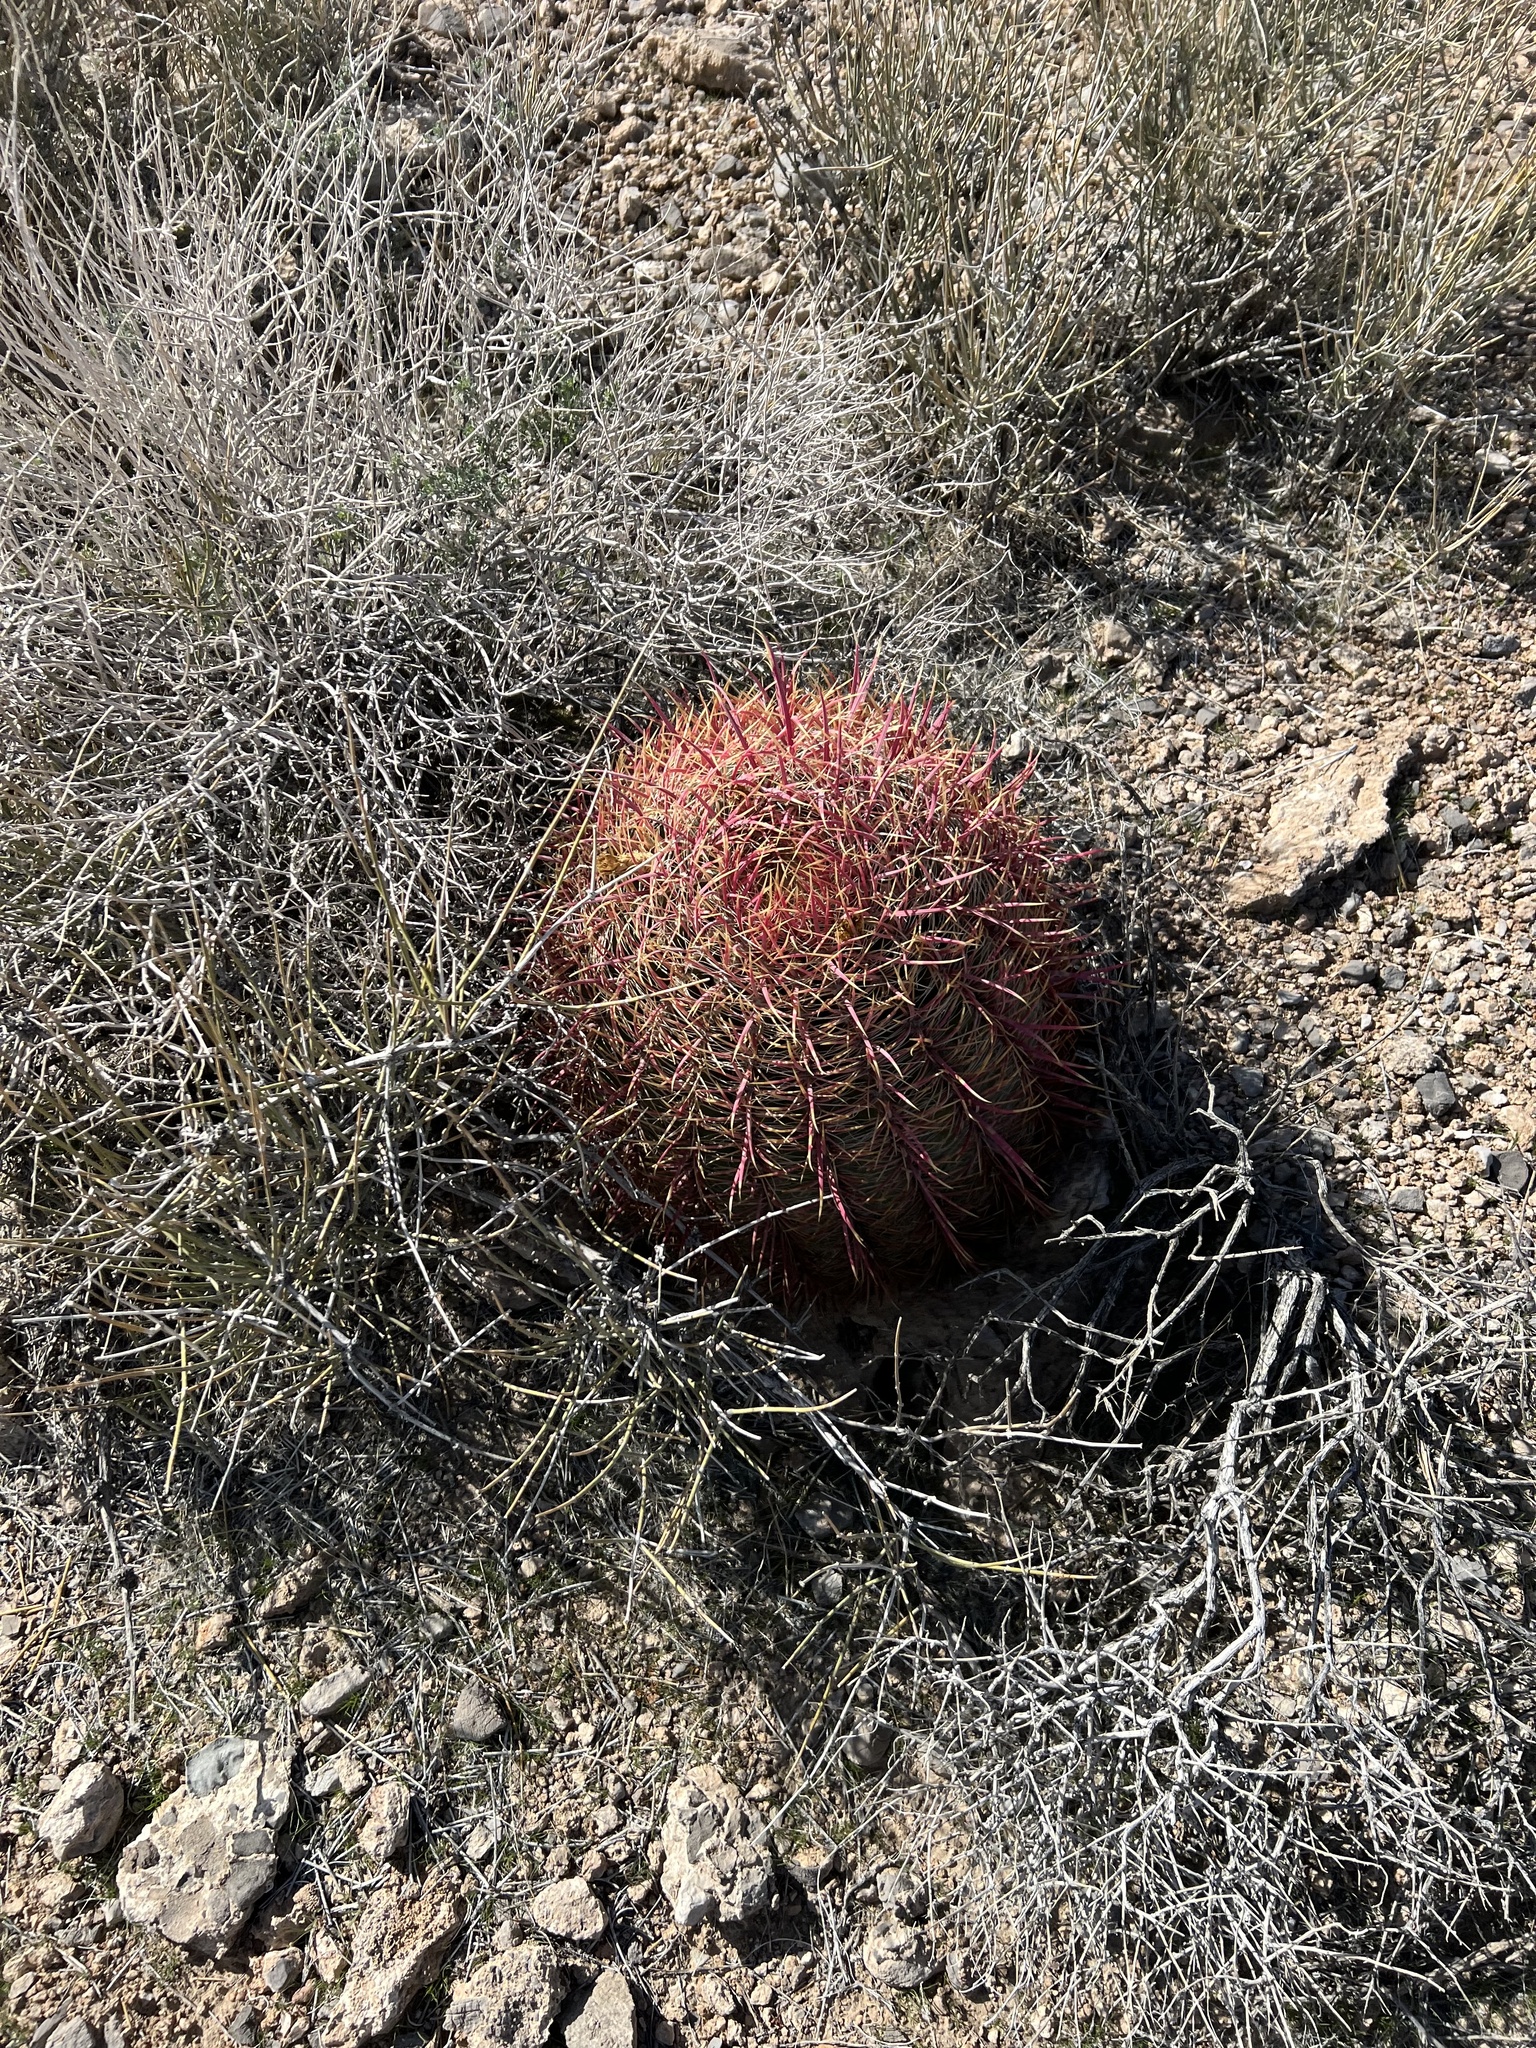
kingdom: Plantae
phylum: Tracheophyta
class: Magnoliopsida
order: Caryophyllales
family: Cactaceae
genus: Ferocactus
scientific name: Ferocactus cylindraceus
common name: California barrel cactus
